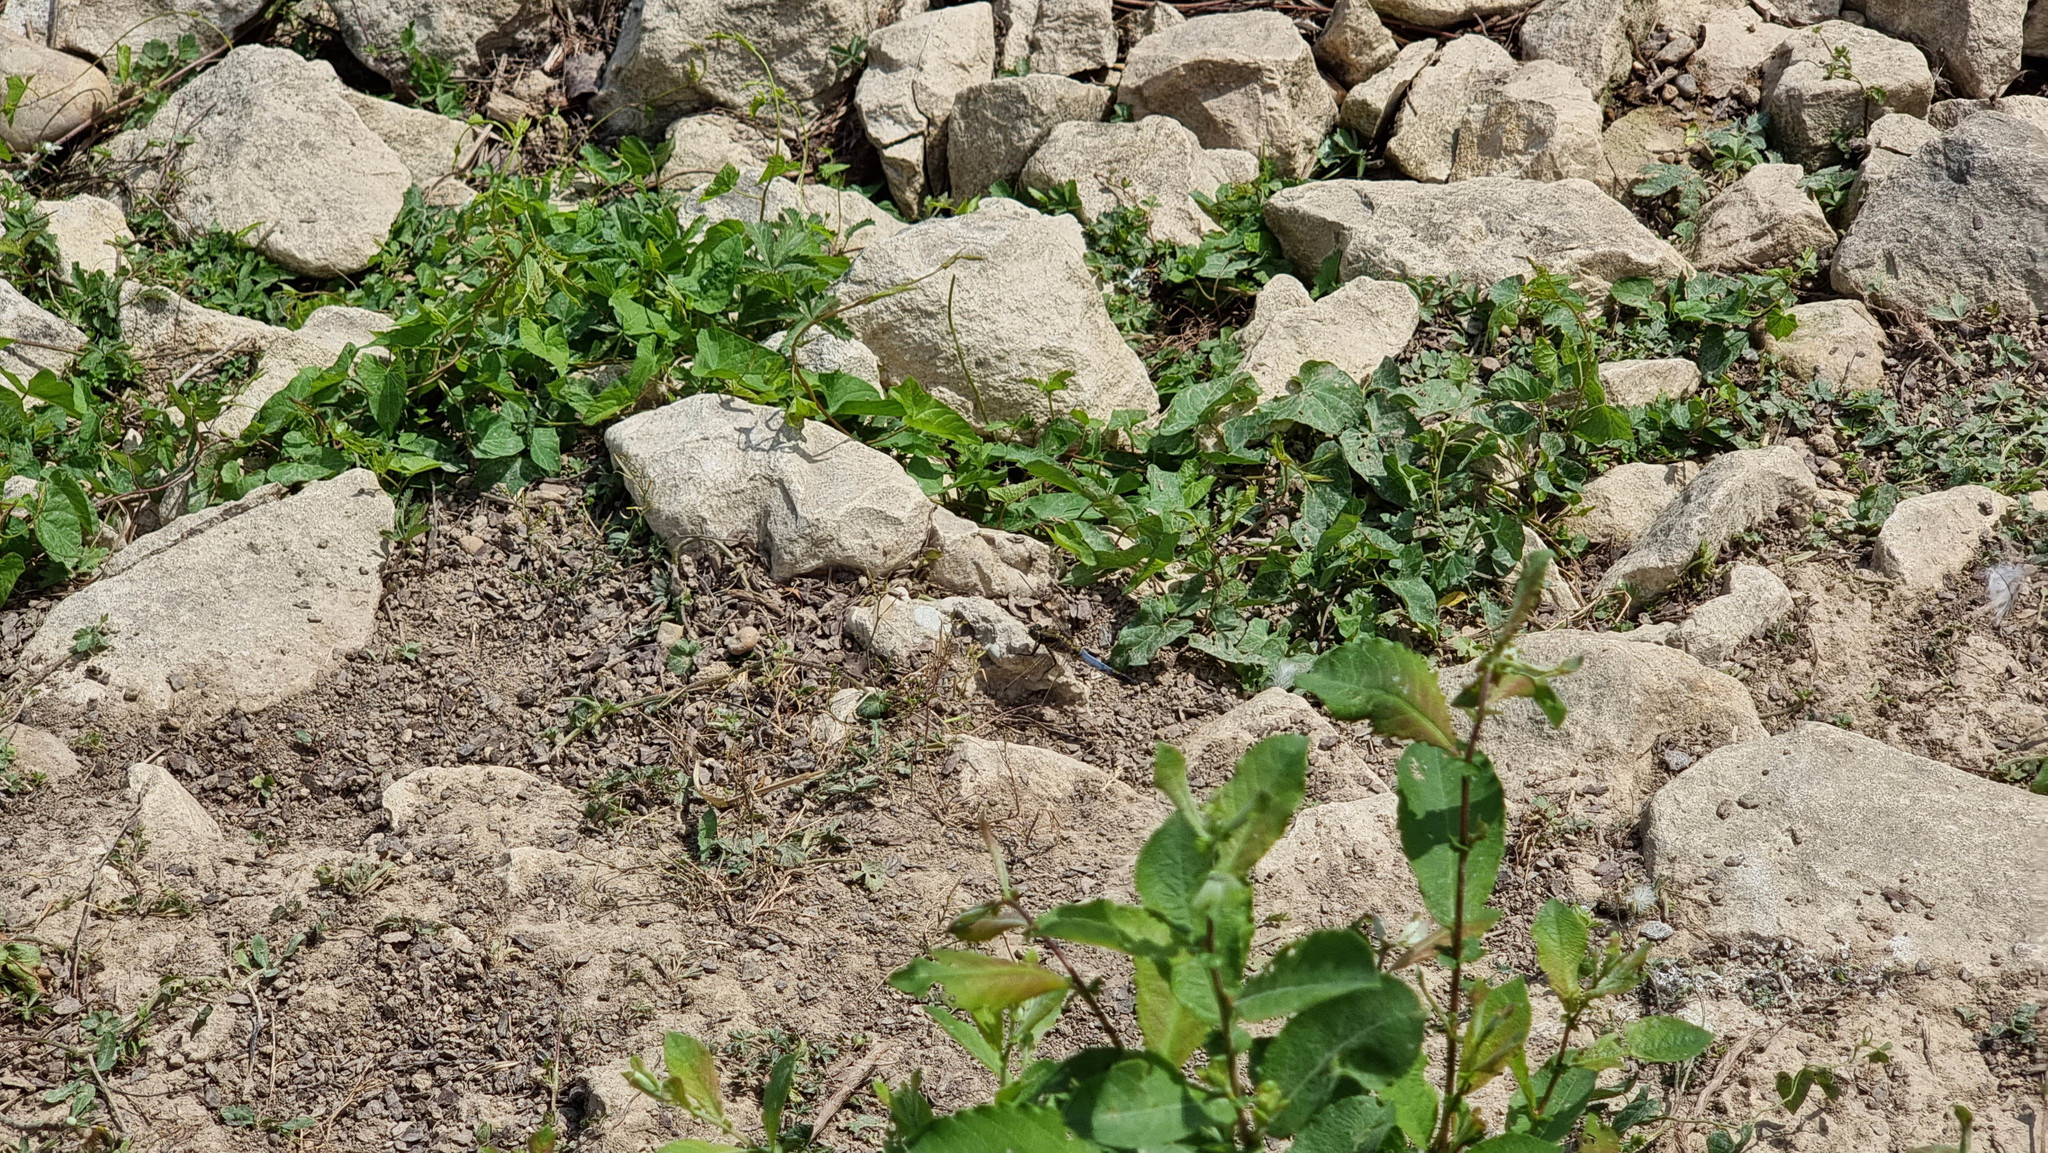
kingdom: Animalia
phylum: Arthropoda
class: Insecta
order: Odonata
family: Libellulidae
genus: Orthetrum
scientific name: Orthetrum cancellatum
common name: Black-tailed skimmer
